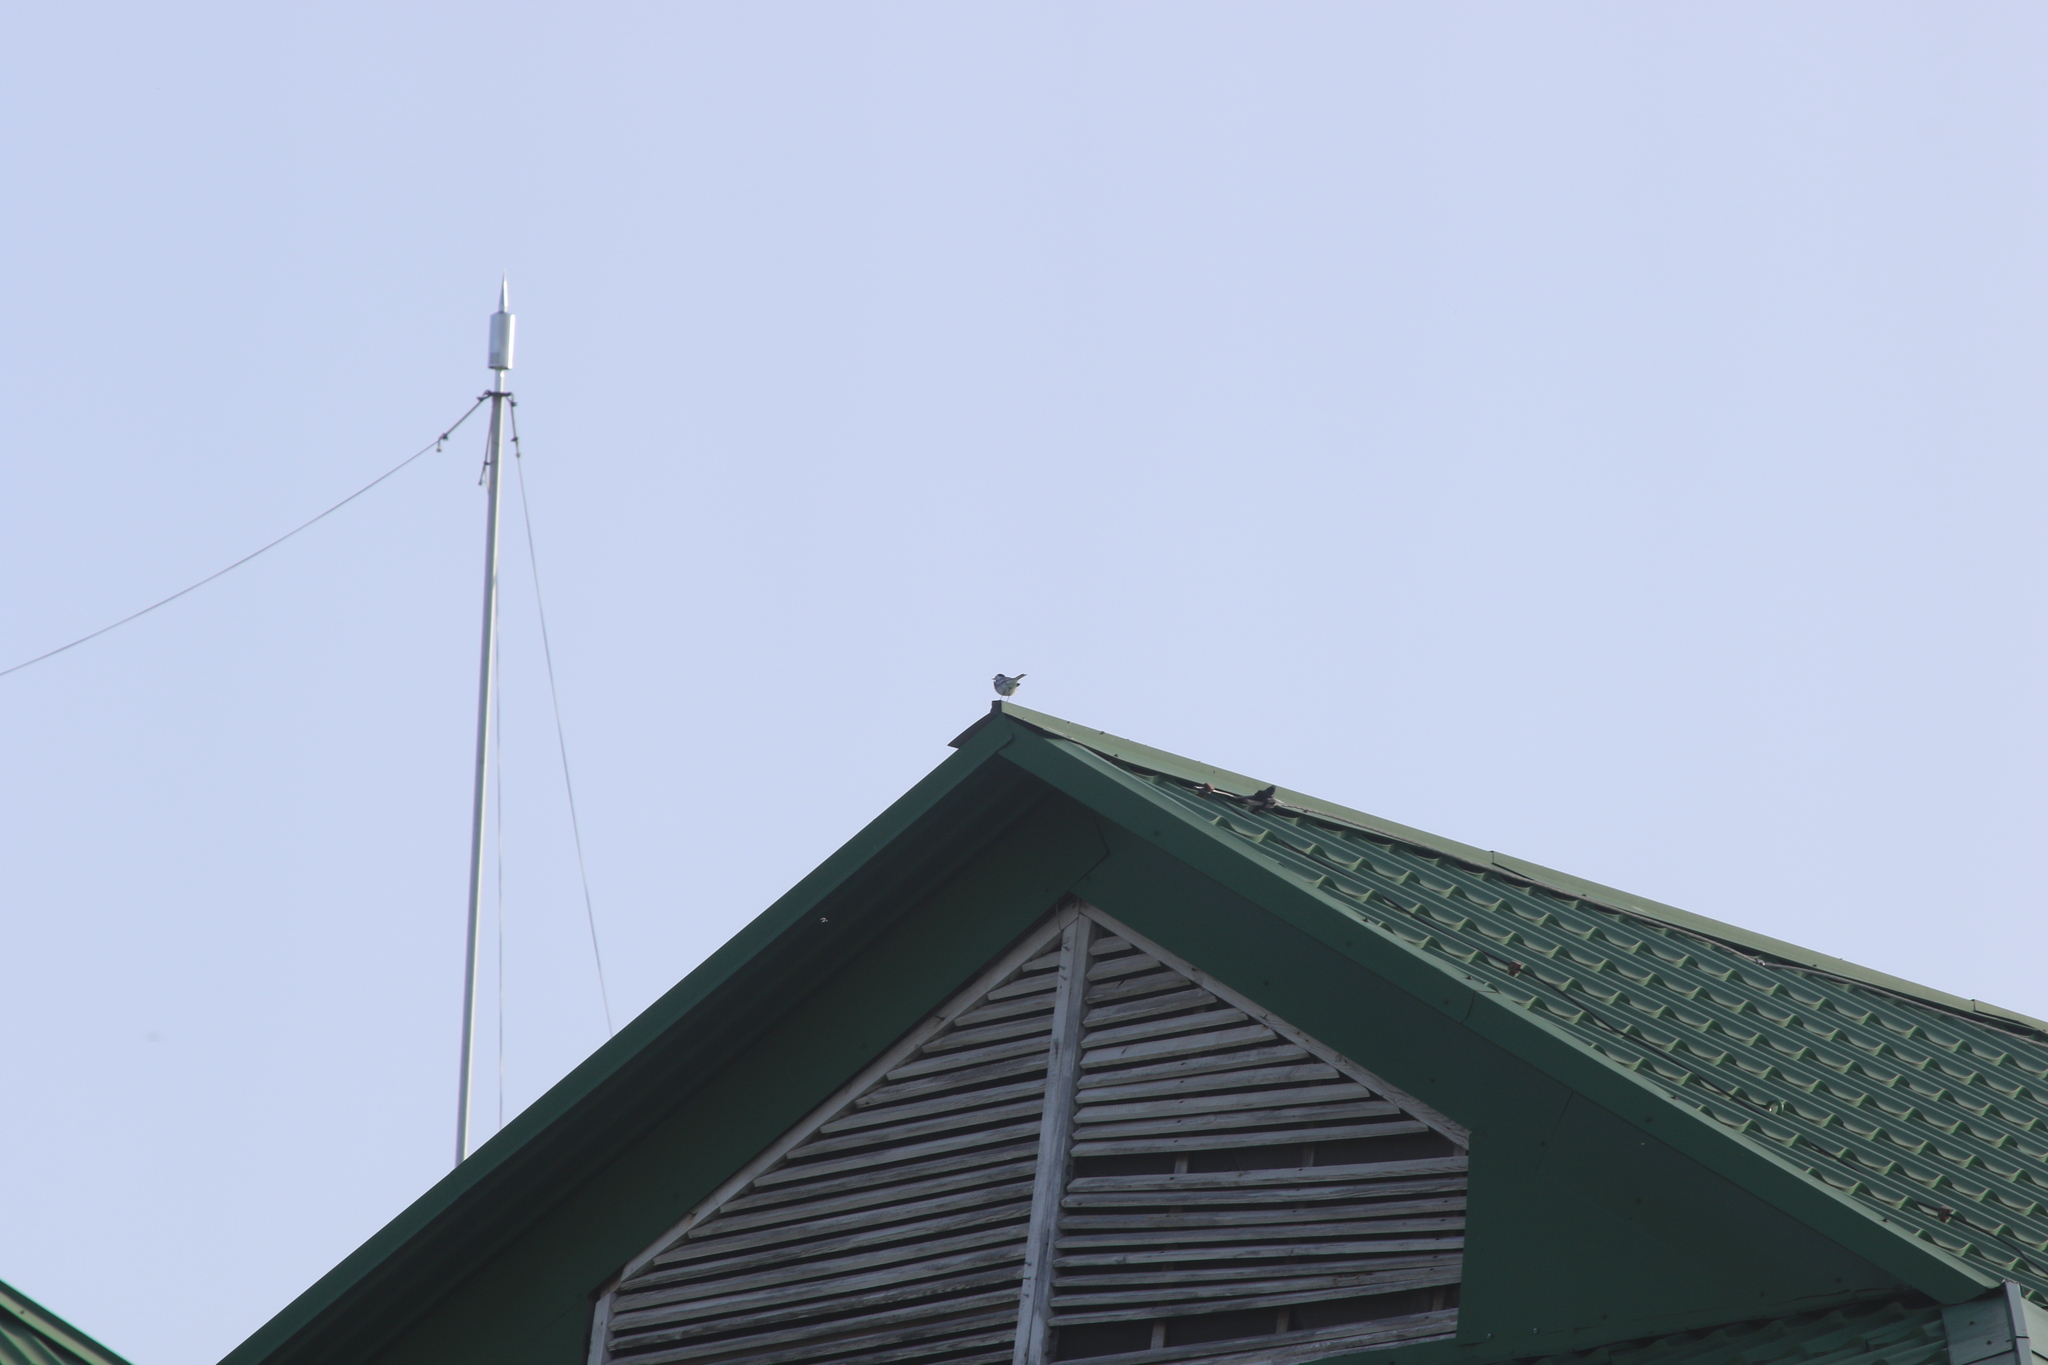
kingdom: Animalia
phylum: Chordata
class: Aves
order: Passeriformes
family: Motacillidae
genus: Motacilla
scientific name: Motacilla alba
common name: White wagtail
